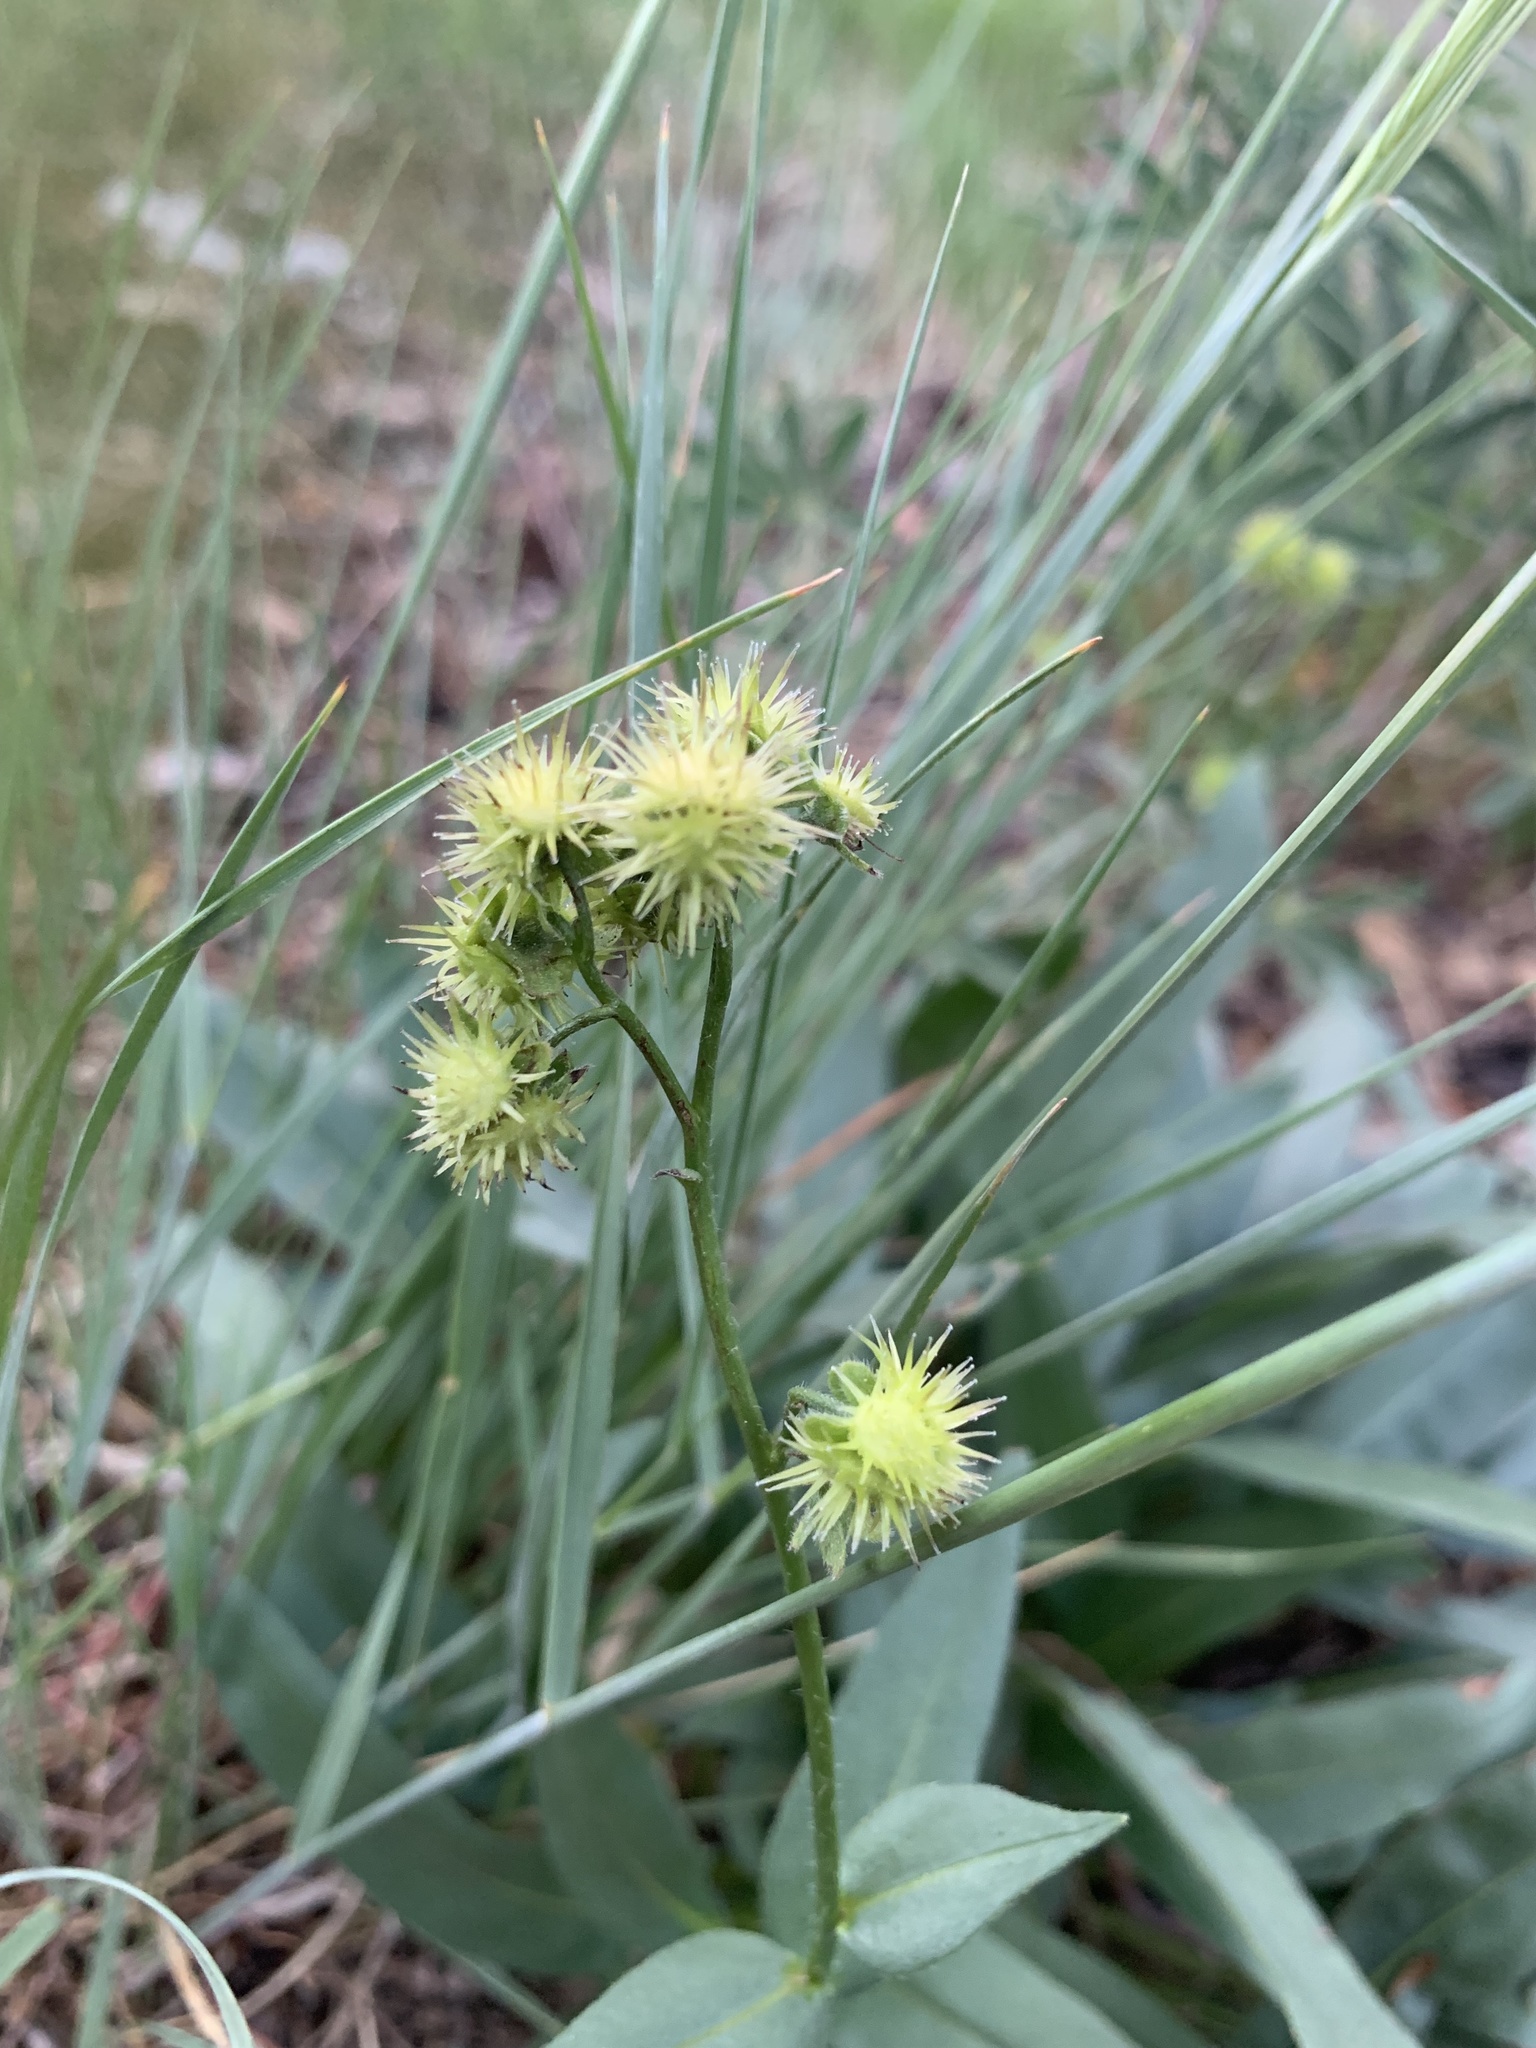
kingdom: Plantae
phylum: Tracheophyta
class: Magnoliopsida
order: Boraginales
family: Boraginaceae
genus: Hackelia
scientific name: Hackelia nervosa
